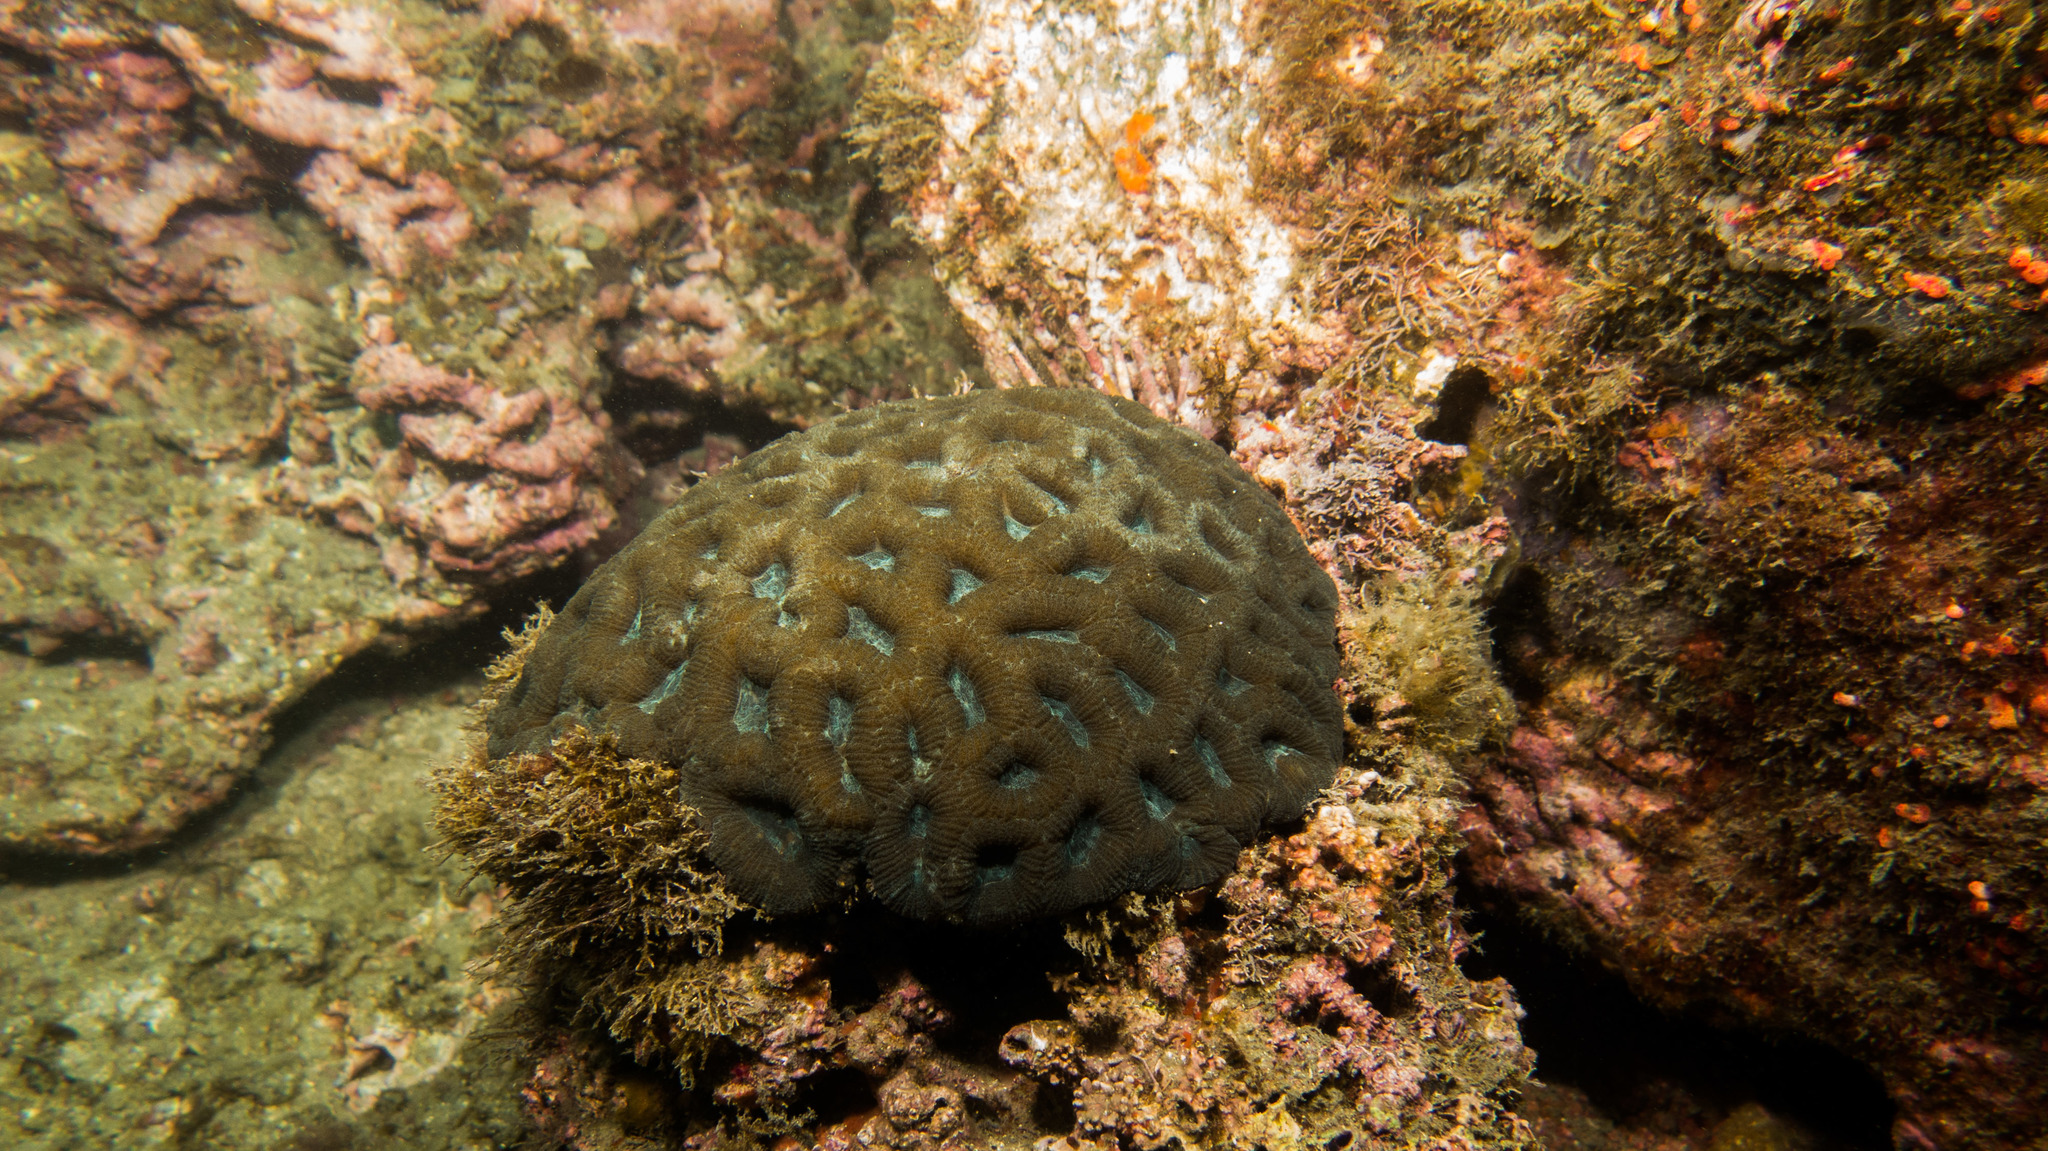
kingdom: Animalia
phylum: Cnidaria
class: Anthozoa
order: Scleractinia
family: Faviidae
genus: Mussismilia
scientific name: Mussismilia hispida
